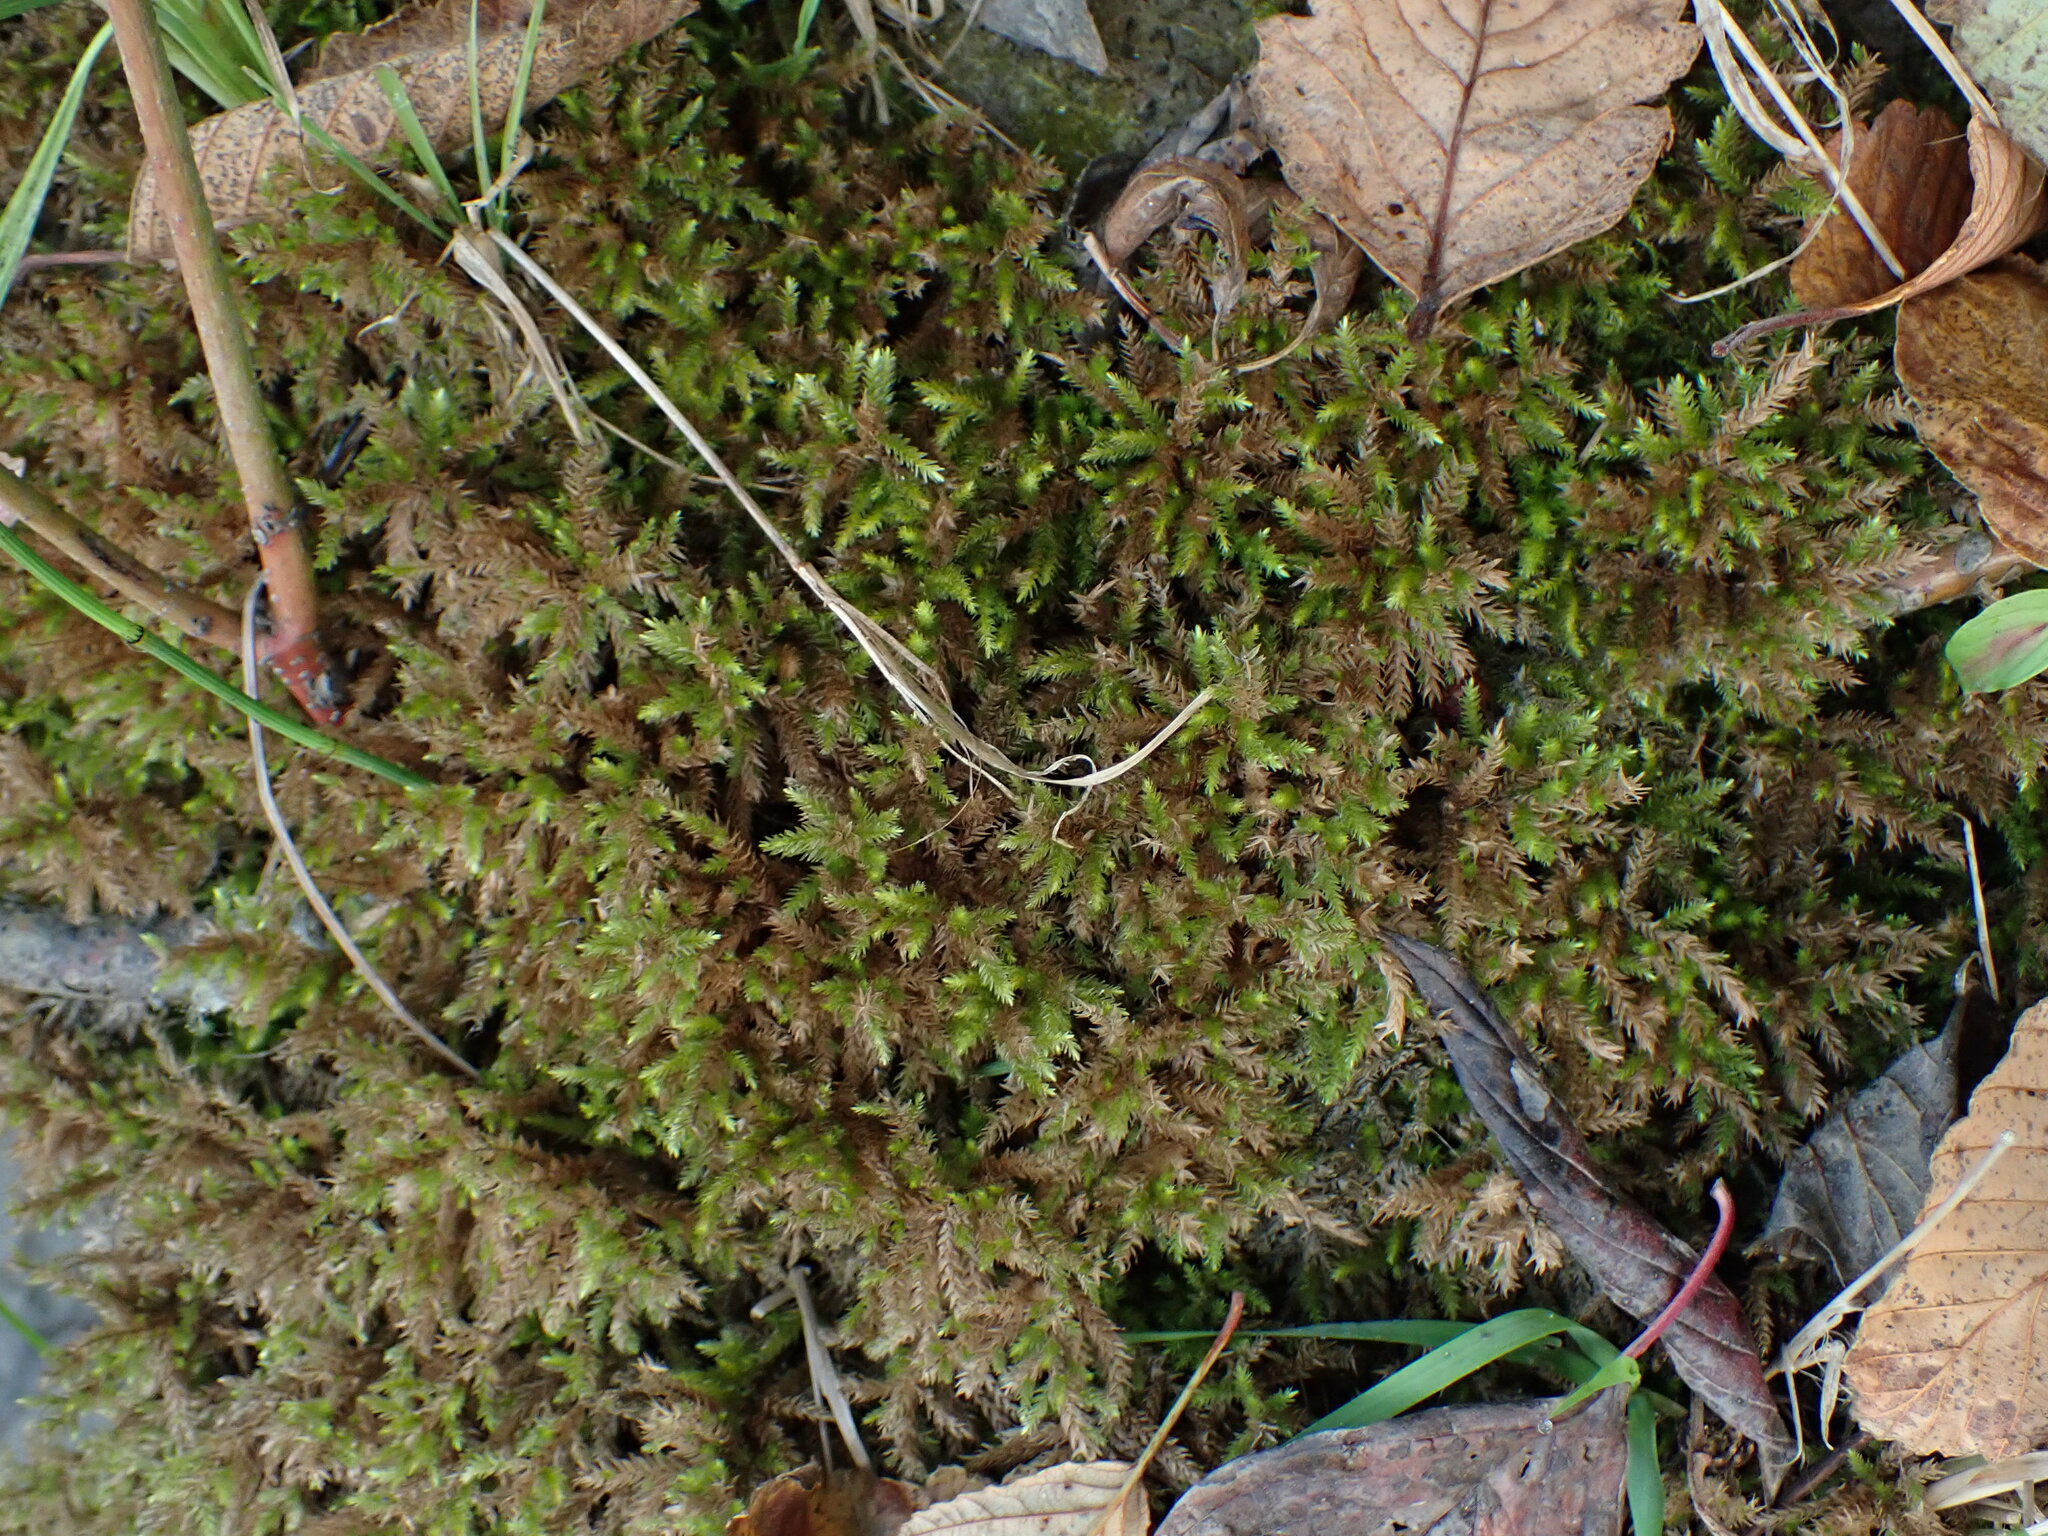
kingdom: Plantae
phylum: Bryophyta
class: Bryopsida
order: Hypnales
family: Climaciaceae
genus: Climacium
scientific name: Climacium dendroides
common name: Northern tree moss
